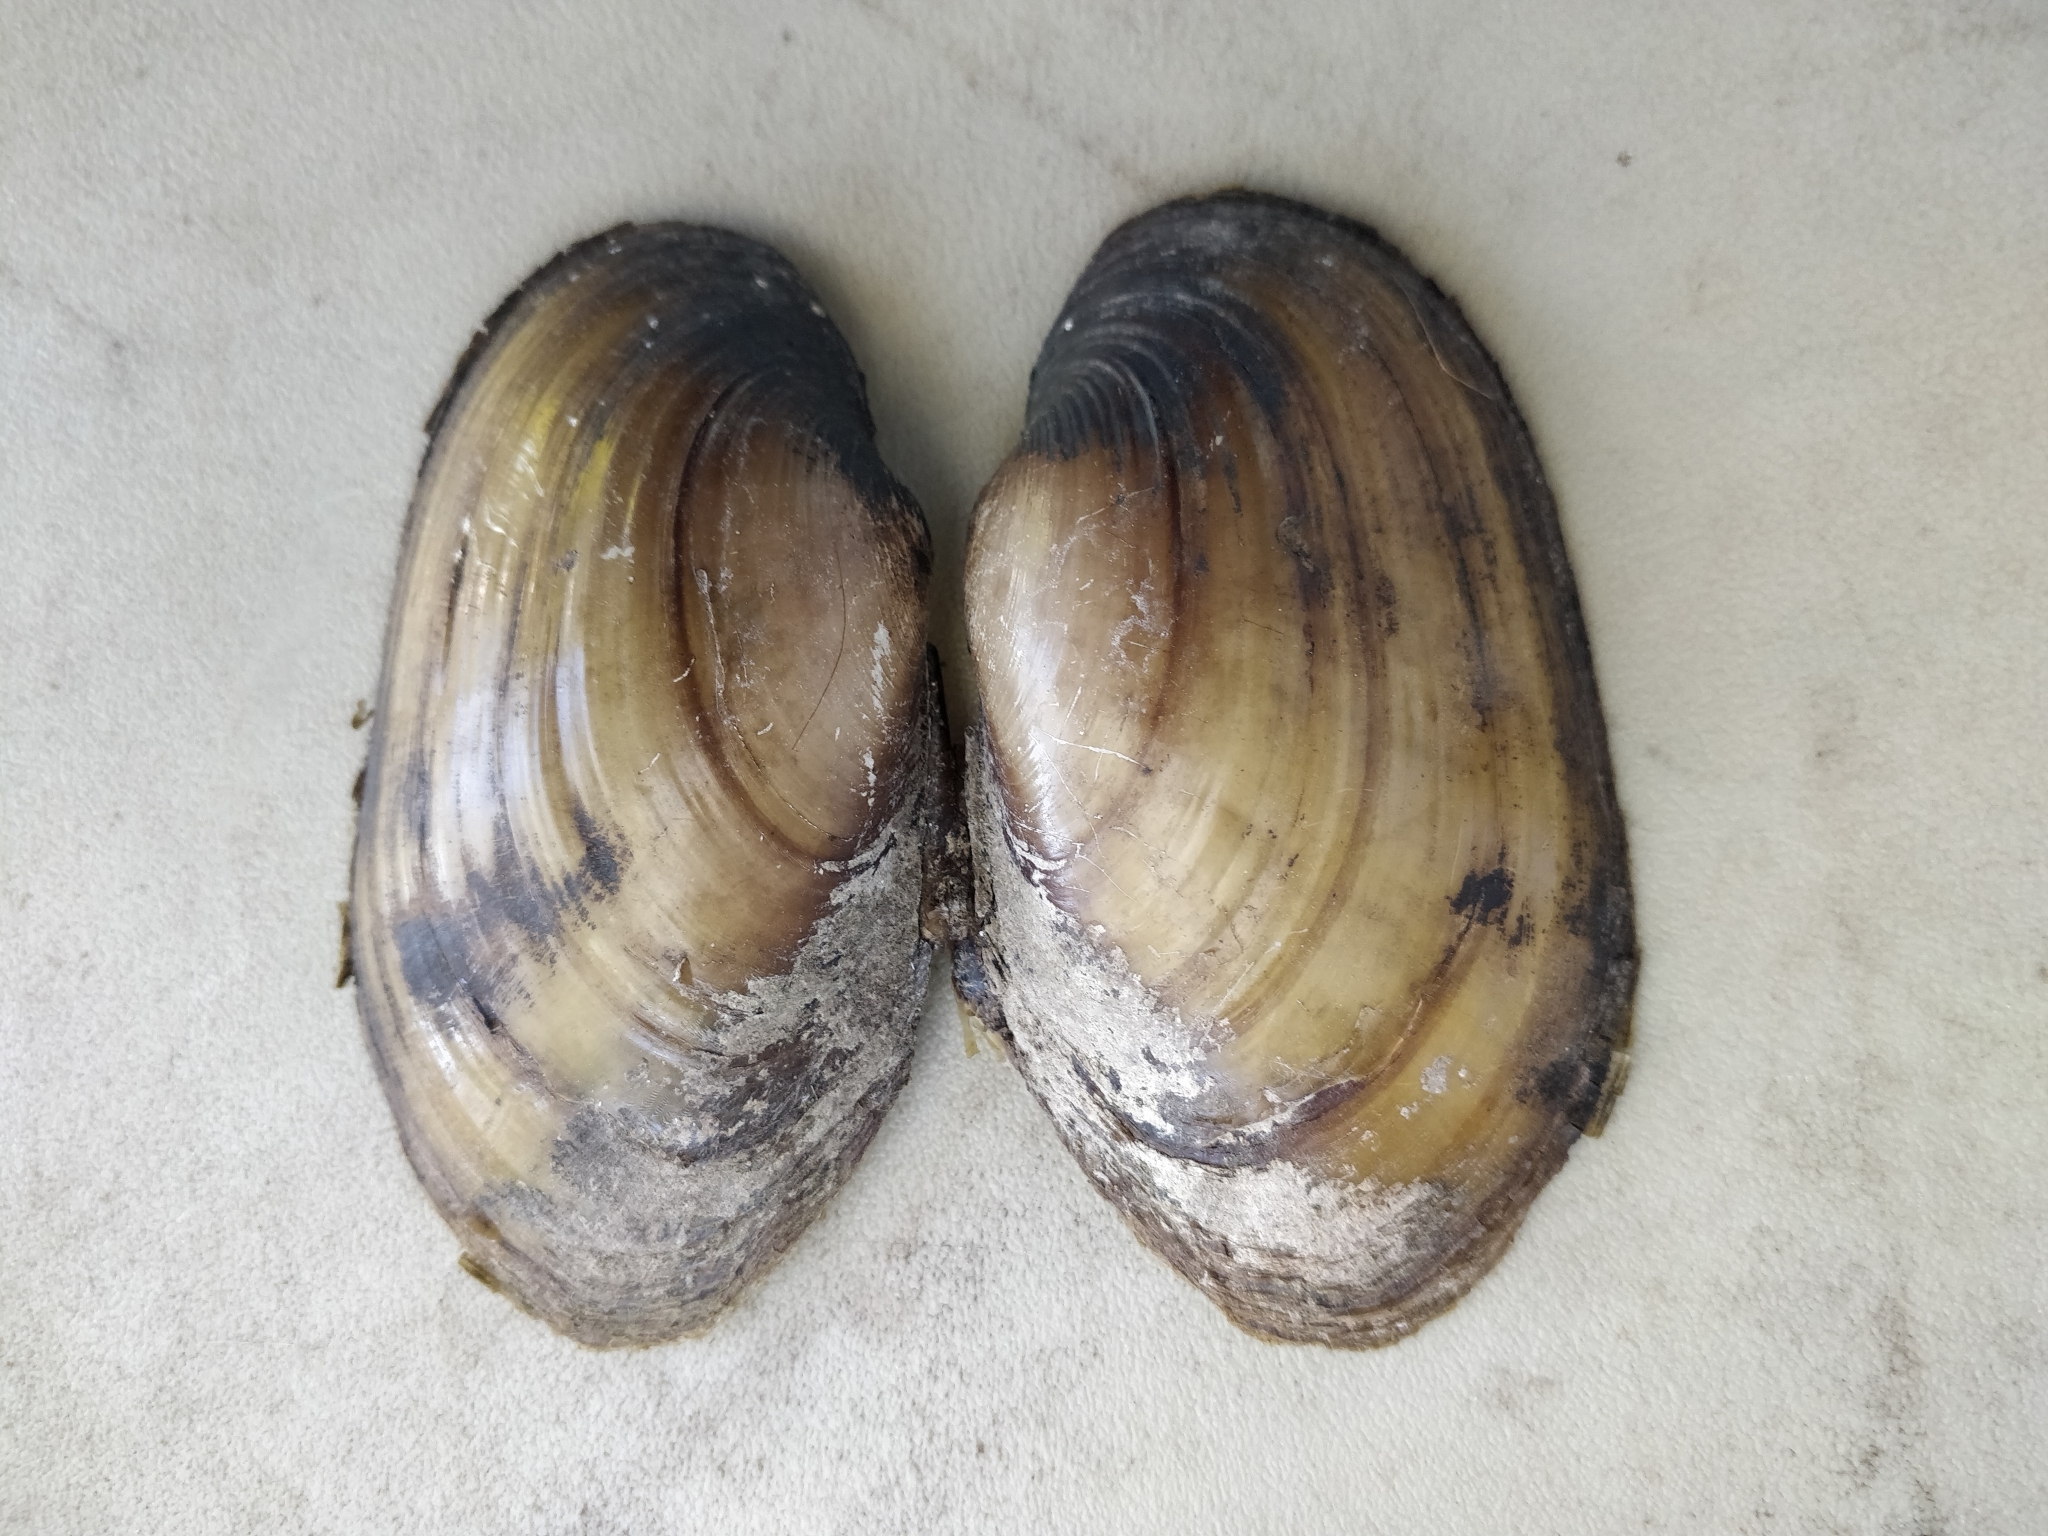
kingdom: Animalia
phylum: Mollusca
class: Bivalvia
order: Unionida
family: Unionidae
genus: Lampsilis
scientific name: Lampsilis siliquoidea
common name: Fatmucket
